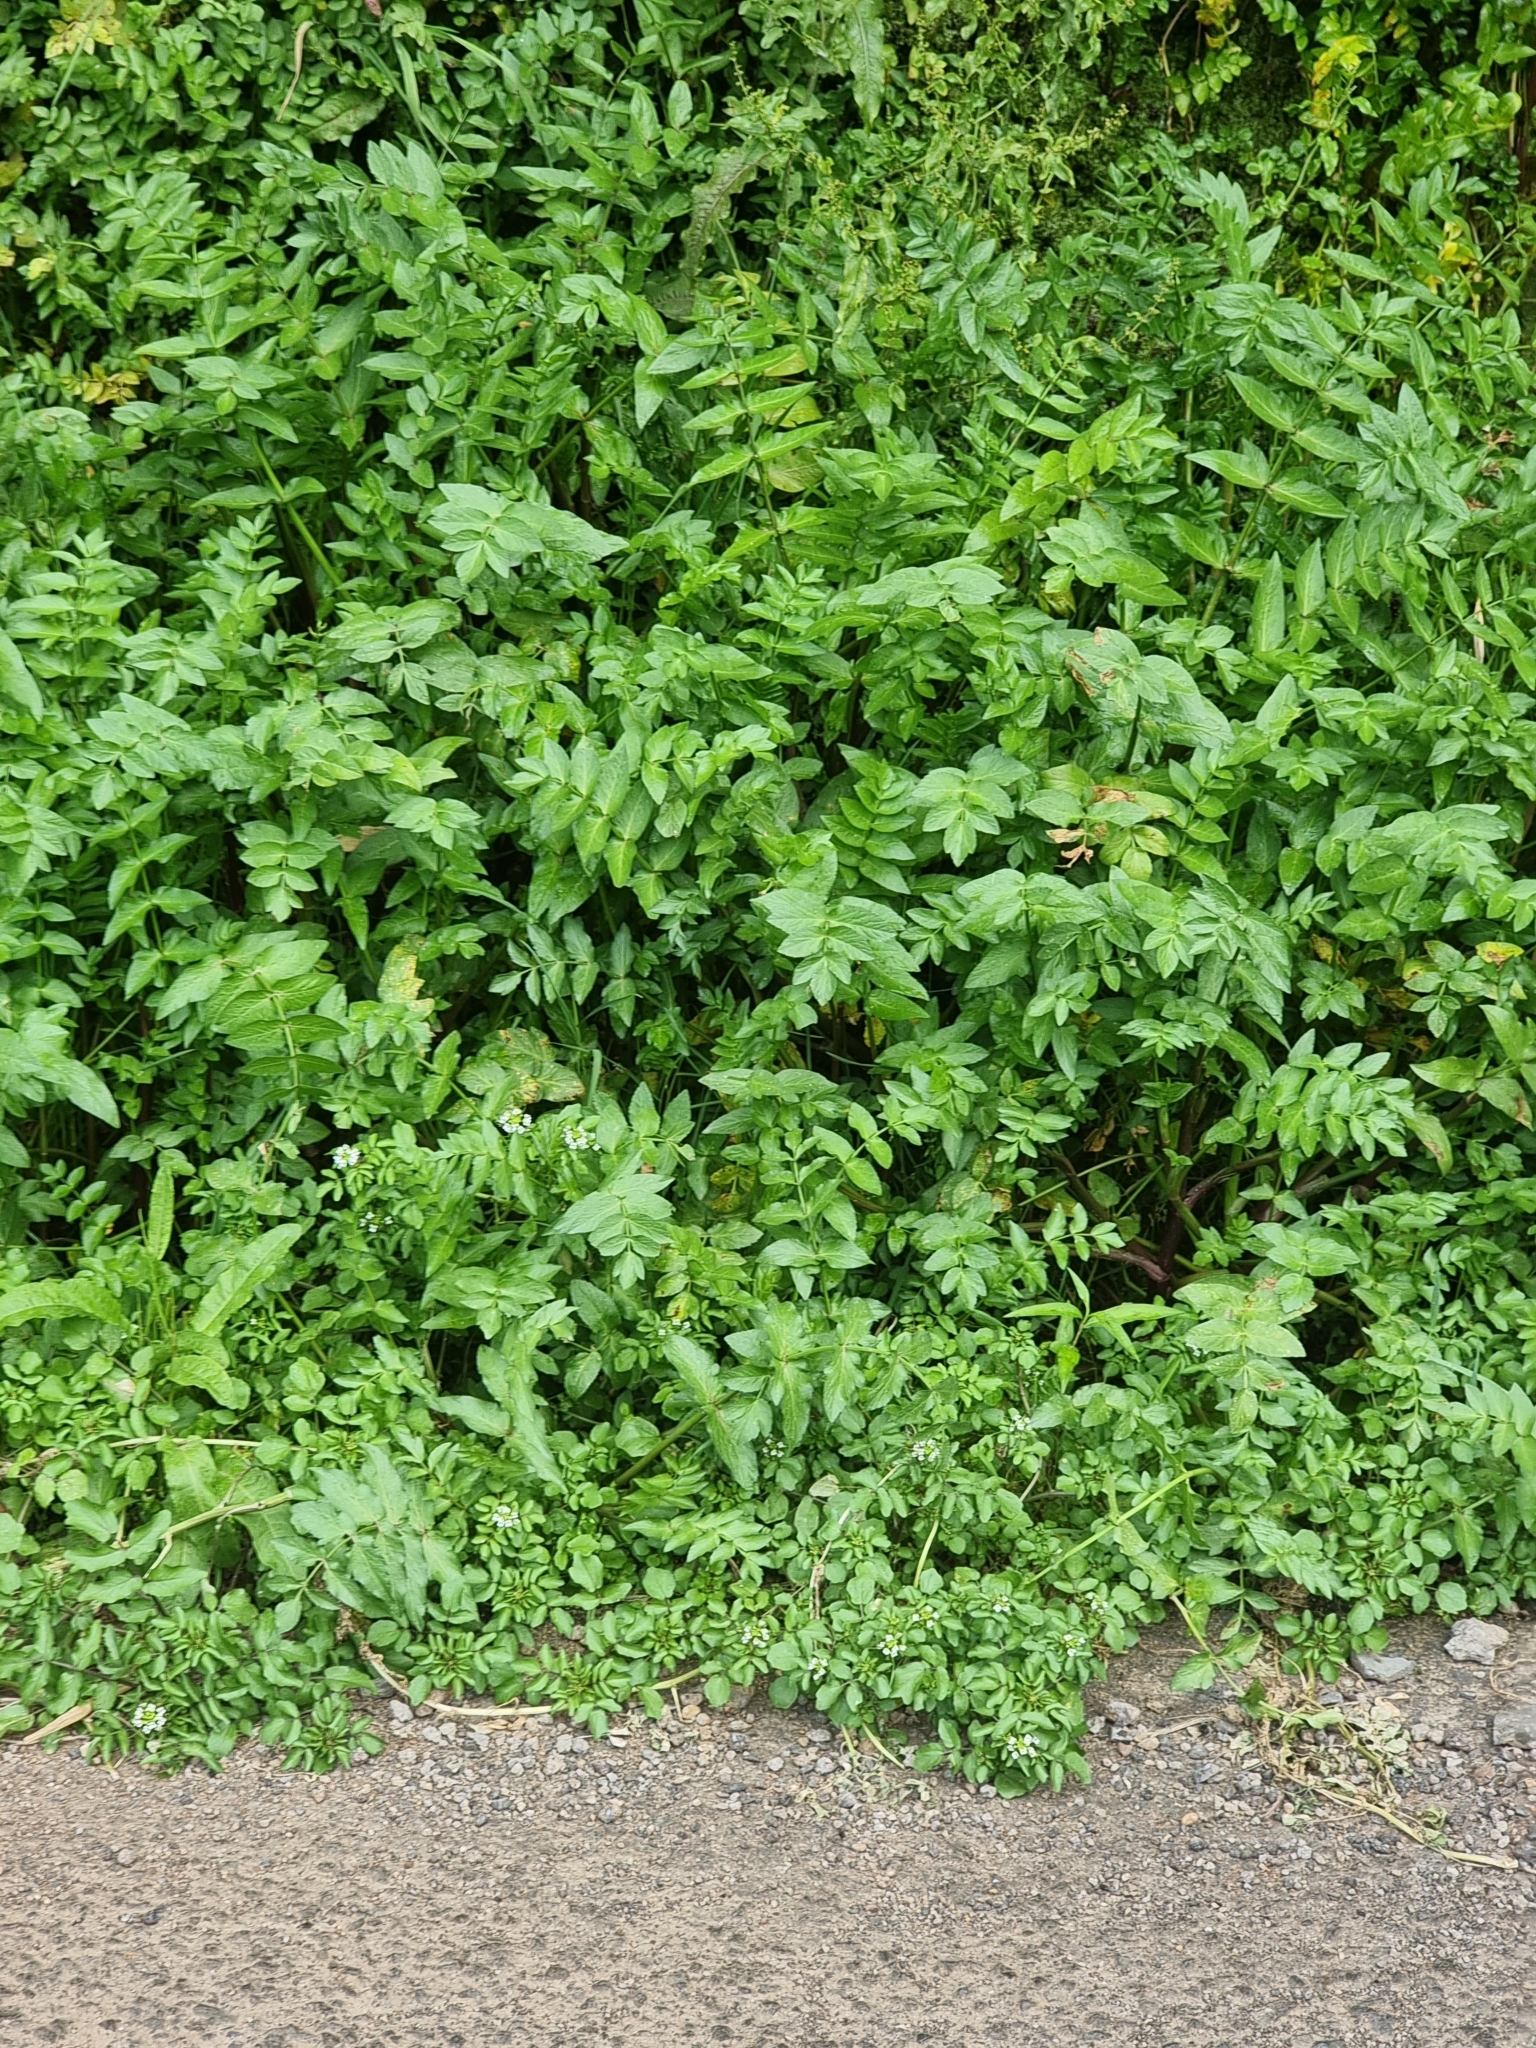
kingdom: Plantae
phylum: Tracheophyta
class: Magnoliopsida
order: Apiales
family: Apiaceae
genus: Helosciadium
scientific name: Helosciadium nodiflorum
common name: Fool's-watercress
